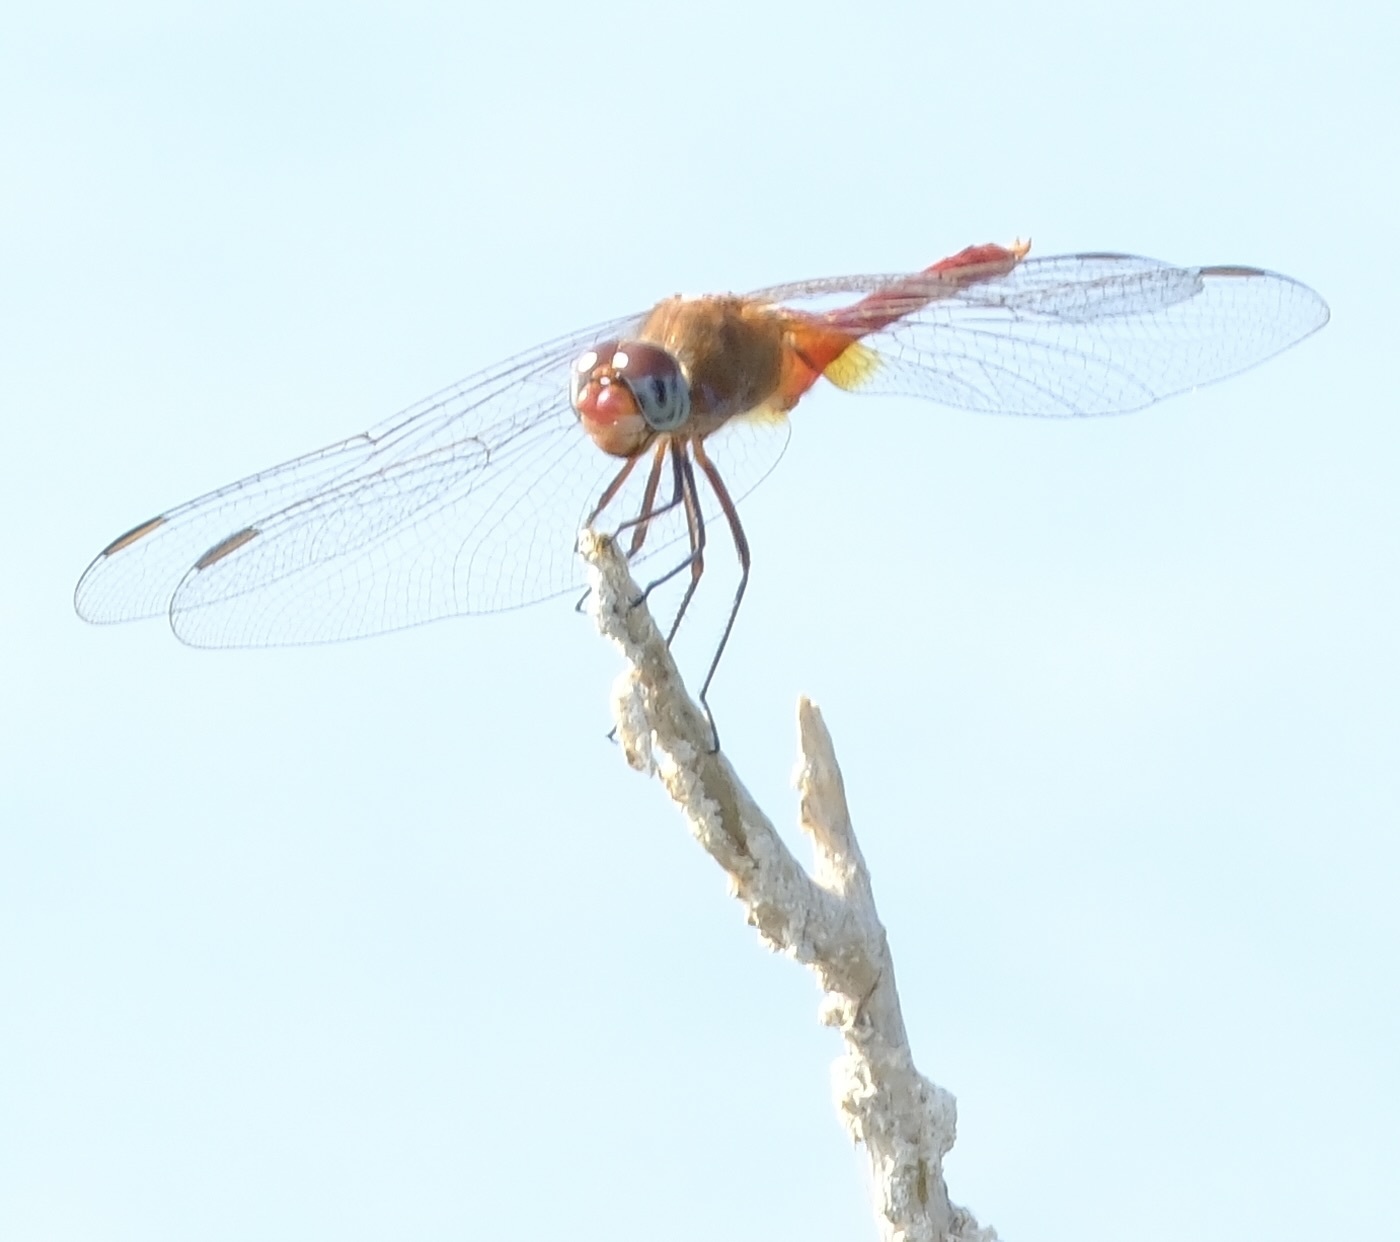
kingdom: Animalia
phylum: Arthropoda
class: Insecta
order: Odonata
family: Libellulidae
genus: Brachymesia
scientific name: Brachymesia furcata
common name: Red-taled pennant
